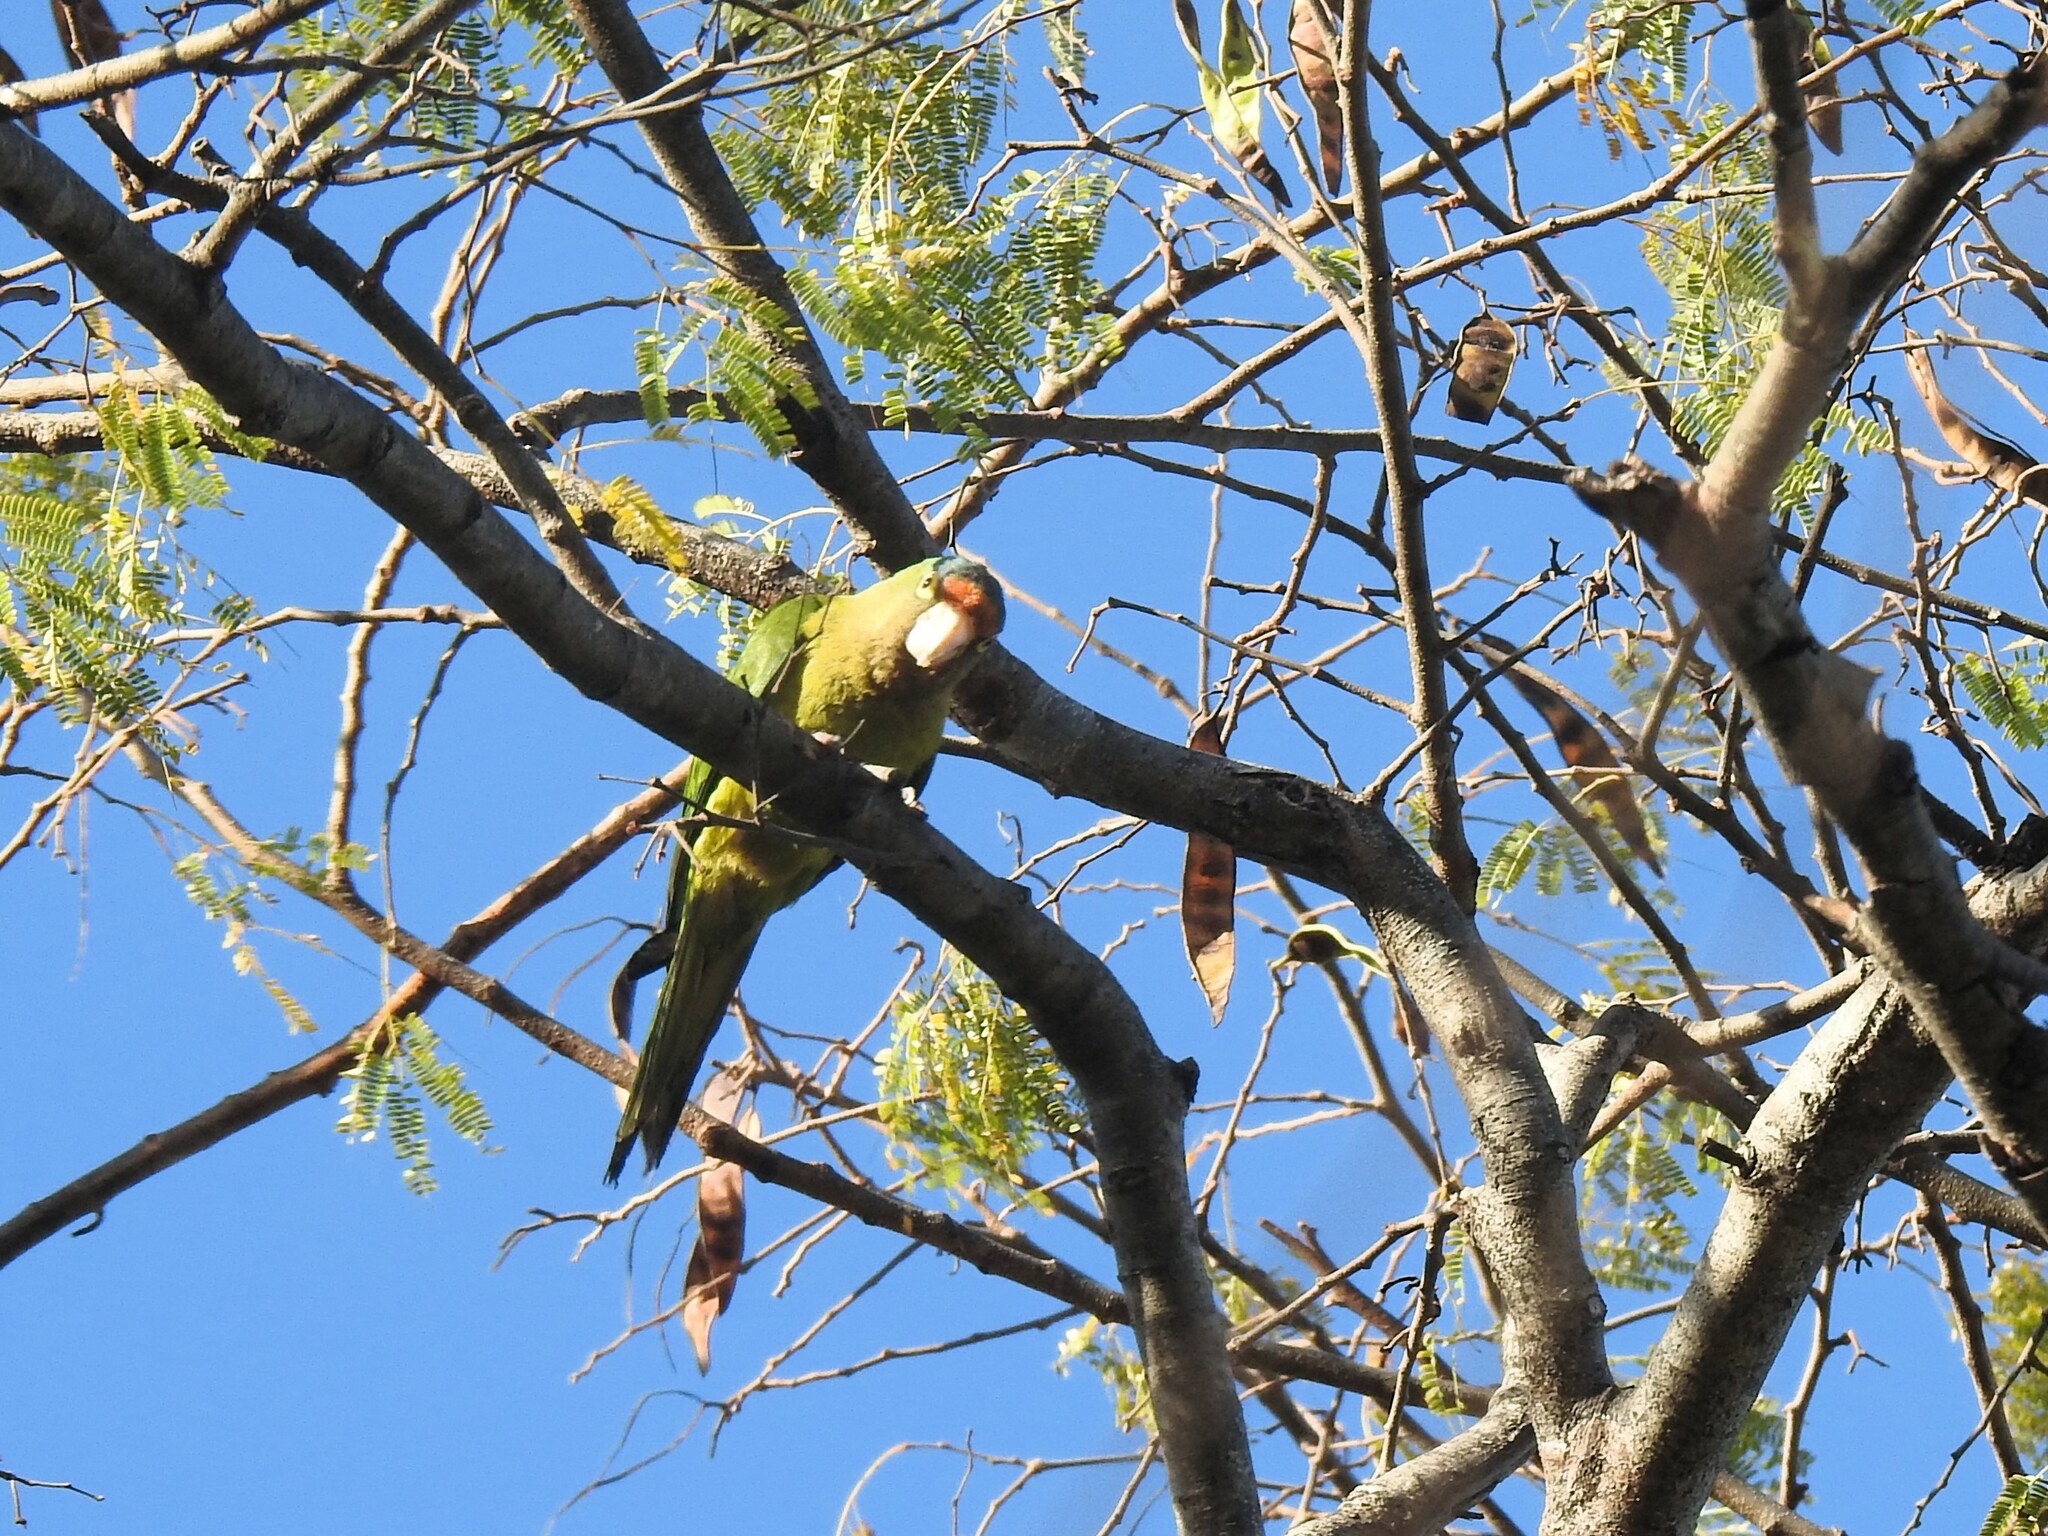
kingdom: Animalia
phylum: Chordata
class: Aves
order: Psittaciformes
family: Psittacidae
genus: Aratinga
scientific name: Aratinga canicularis
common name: Orange-fronted parakeet
